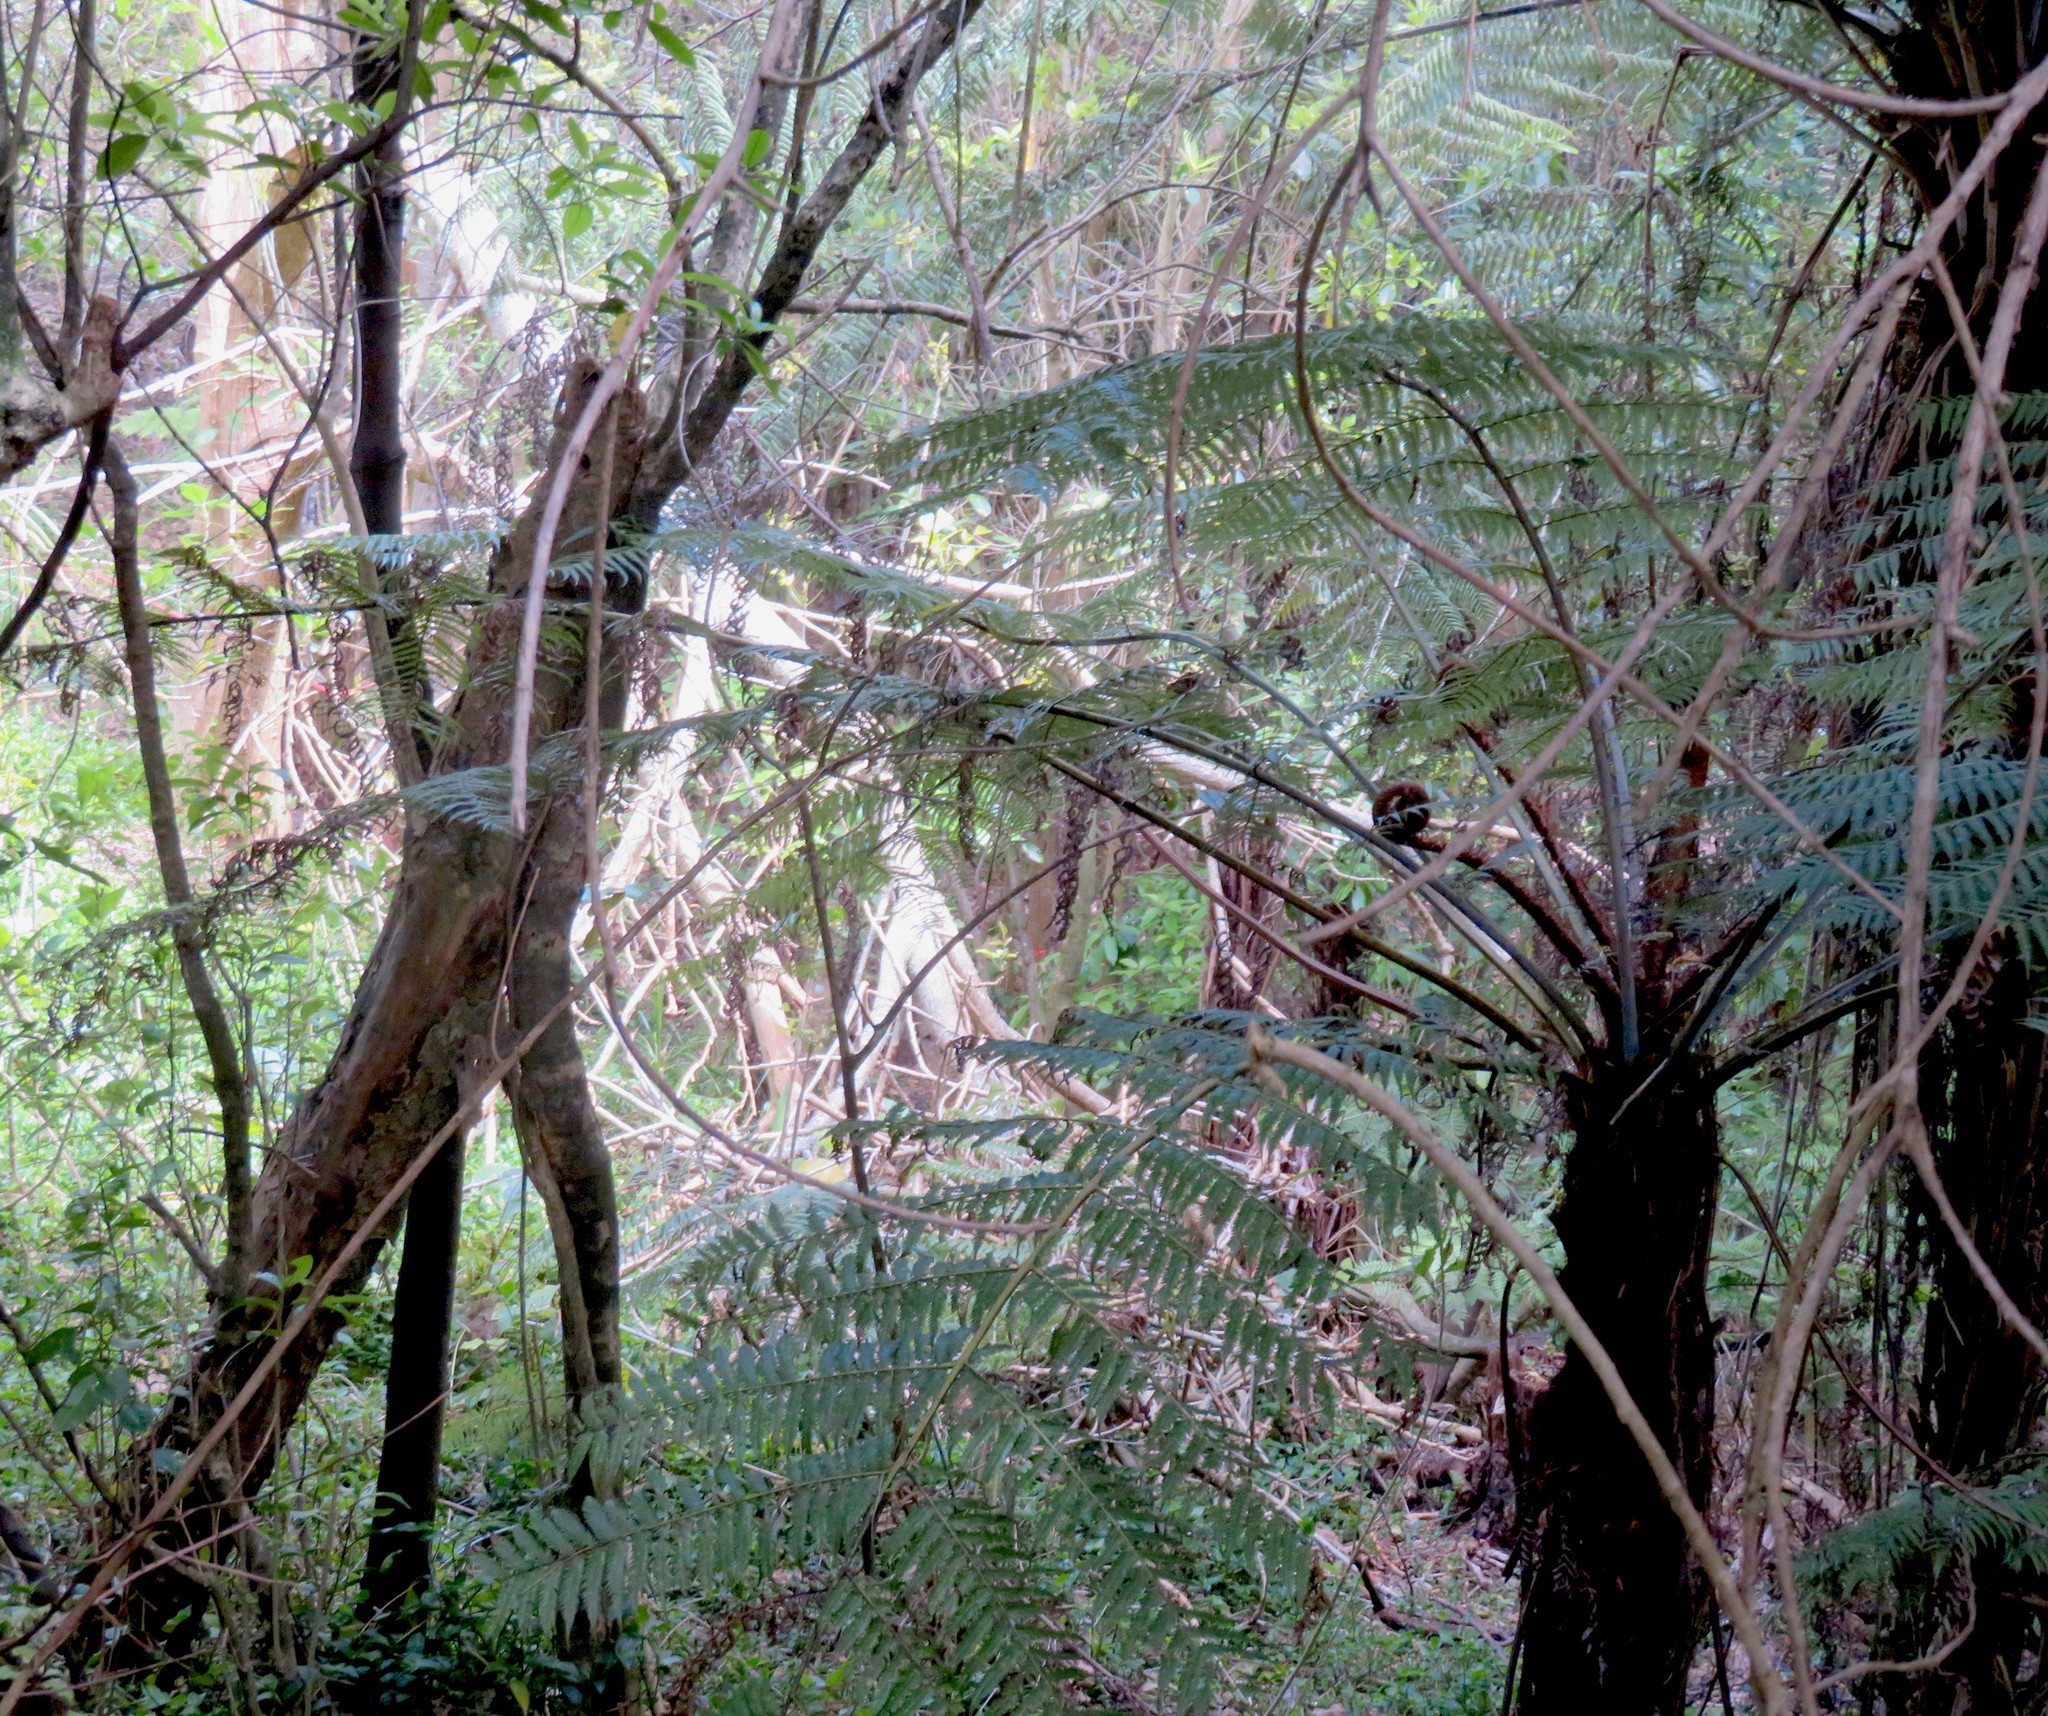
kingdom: Plantae
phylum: Tracheophyta
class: Polypodiopsida
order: Cyatheales
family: Cyatheaceae
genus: Alsophila
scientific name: Alsophila dealbata
